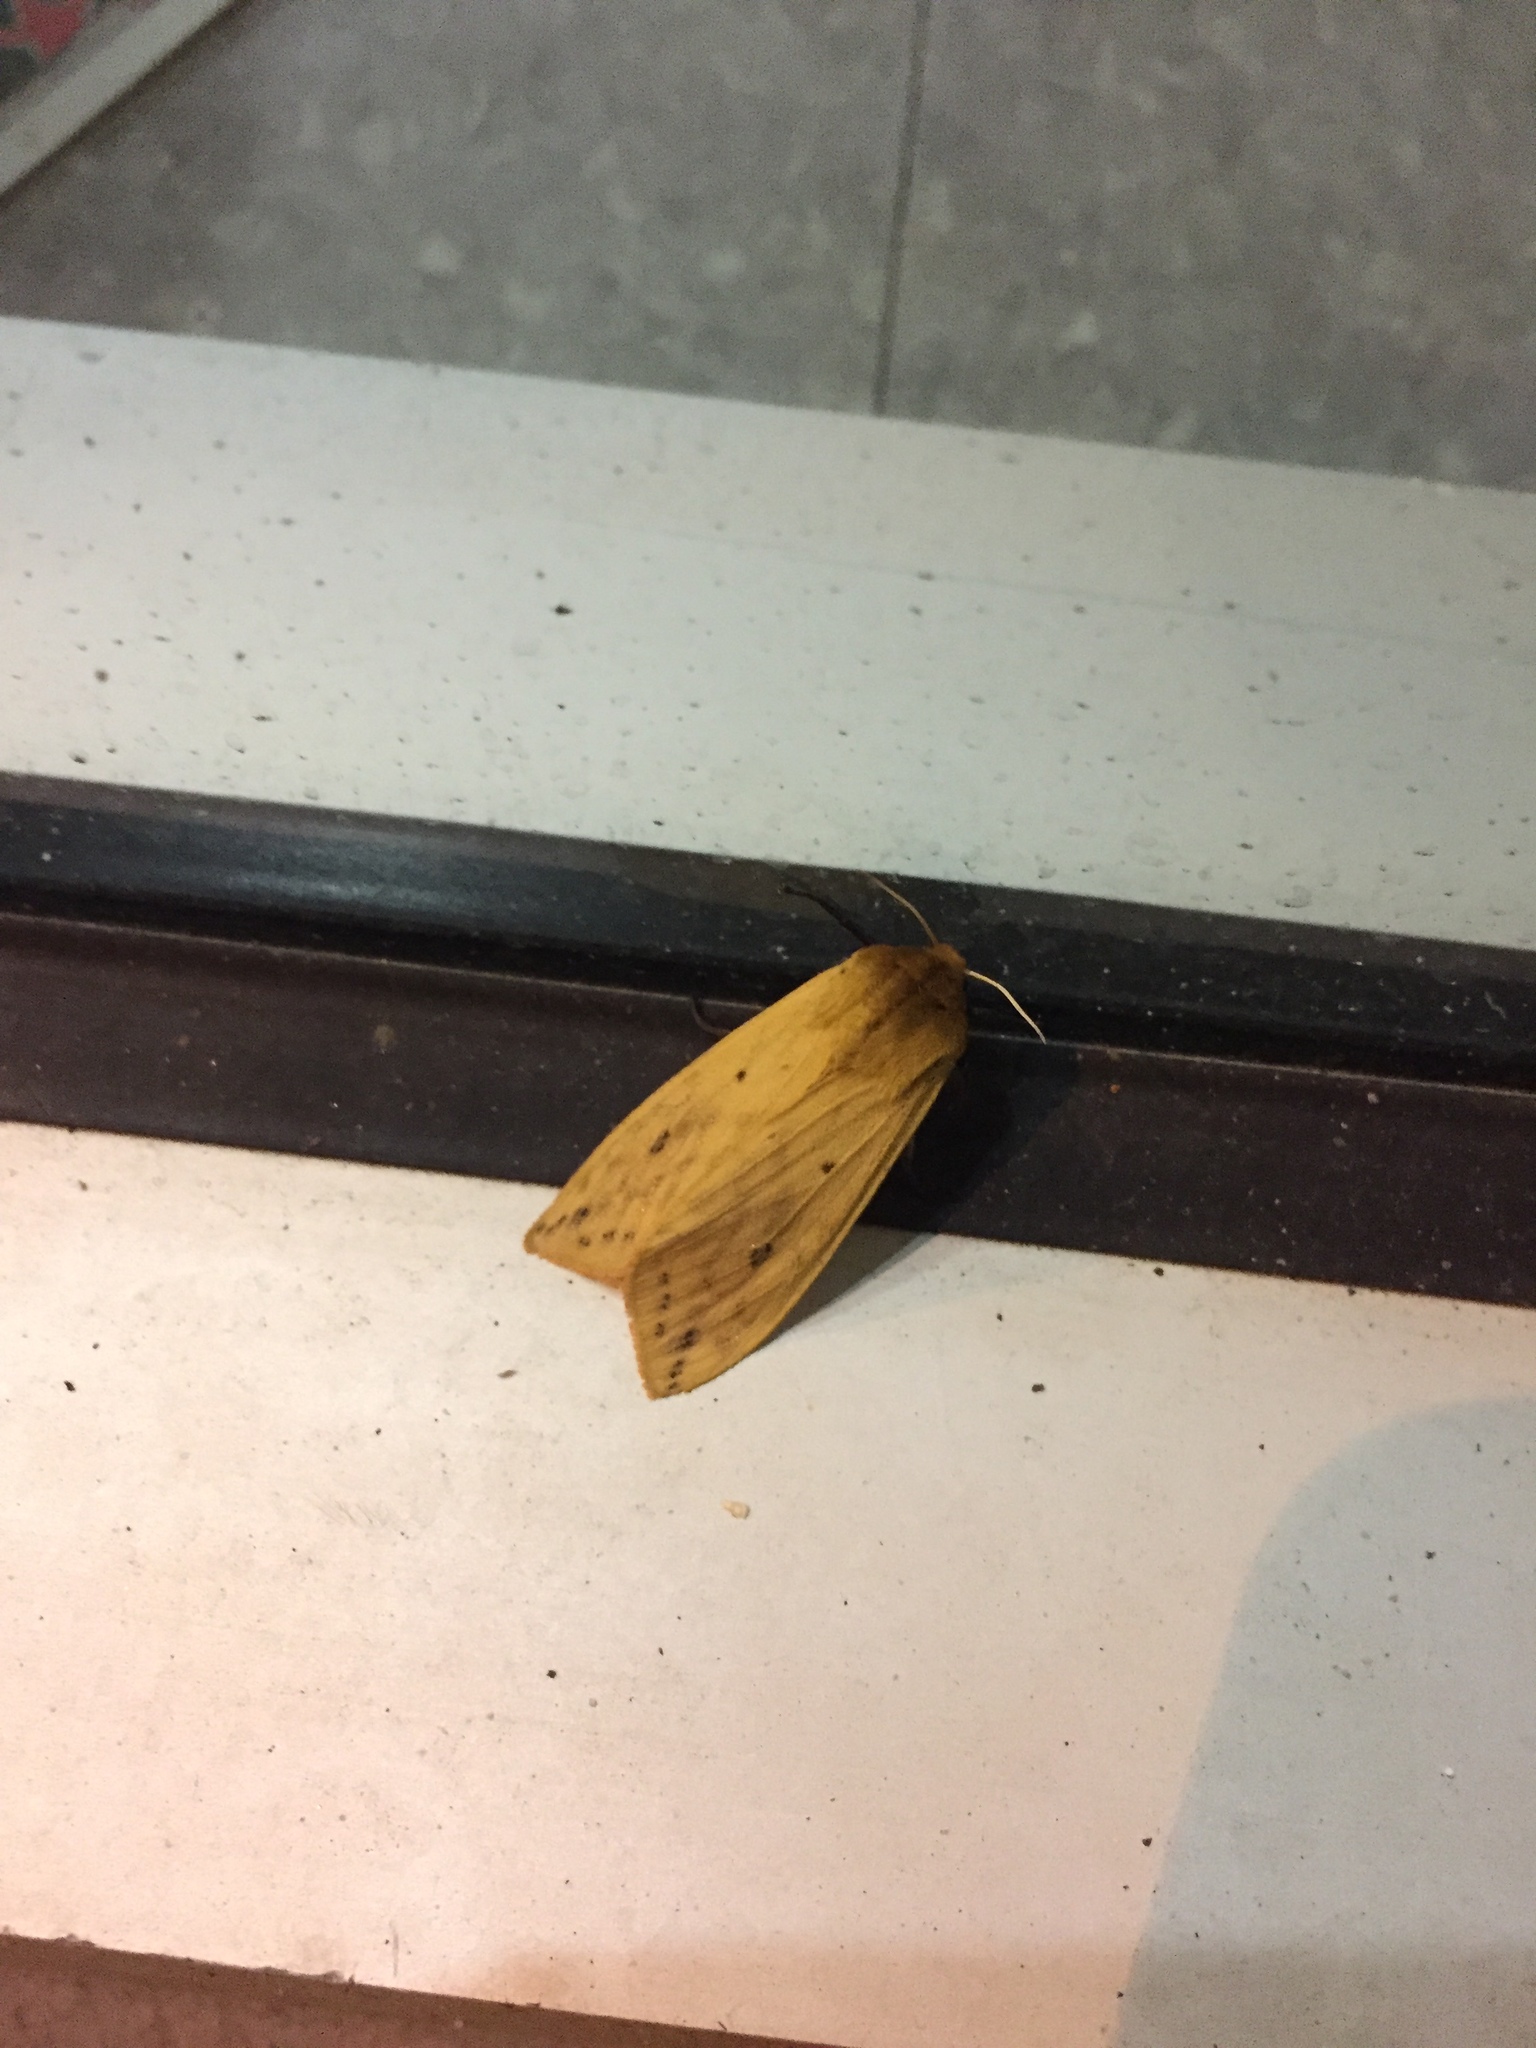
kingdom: Animalia
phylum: Arthropoda
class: Insecta
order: Lepidoptera
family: Erebidae
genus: Pyrrharctia
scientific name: Pyrrharctia isabella
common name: Isabella tiger moth
